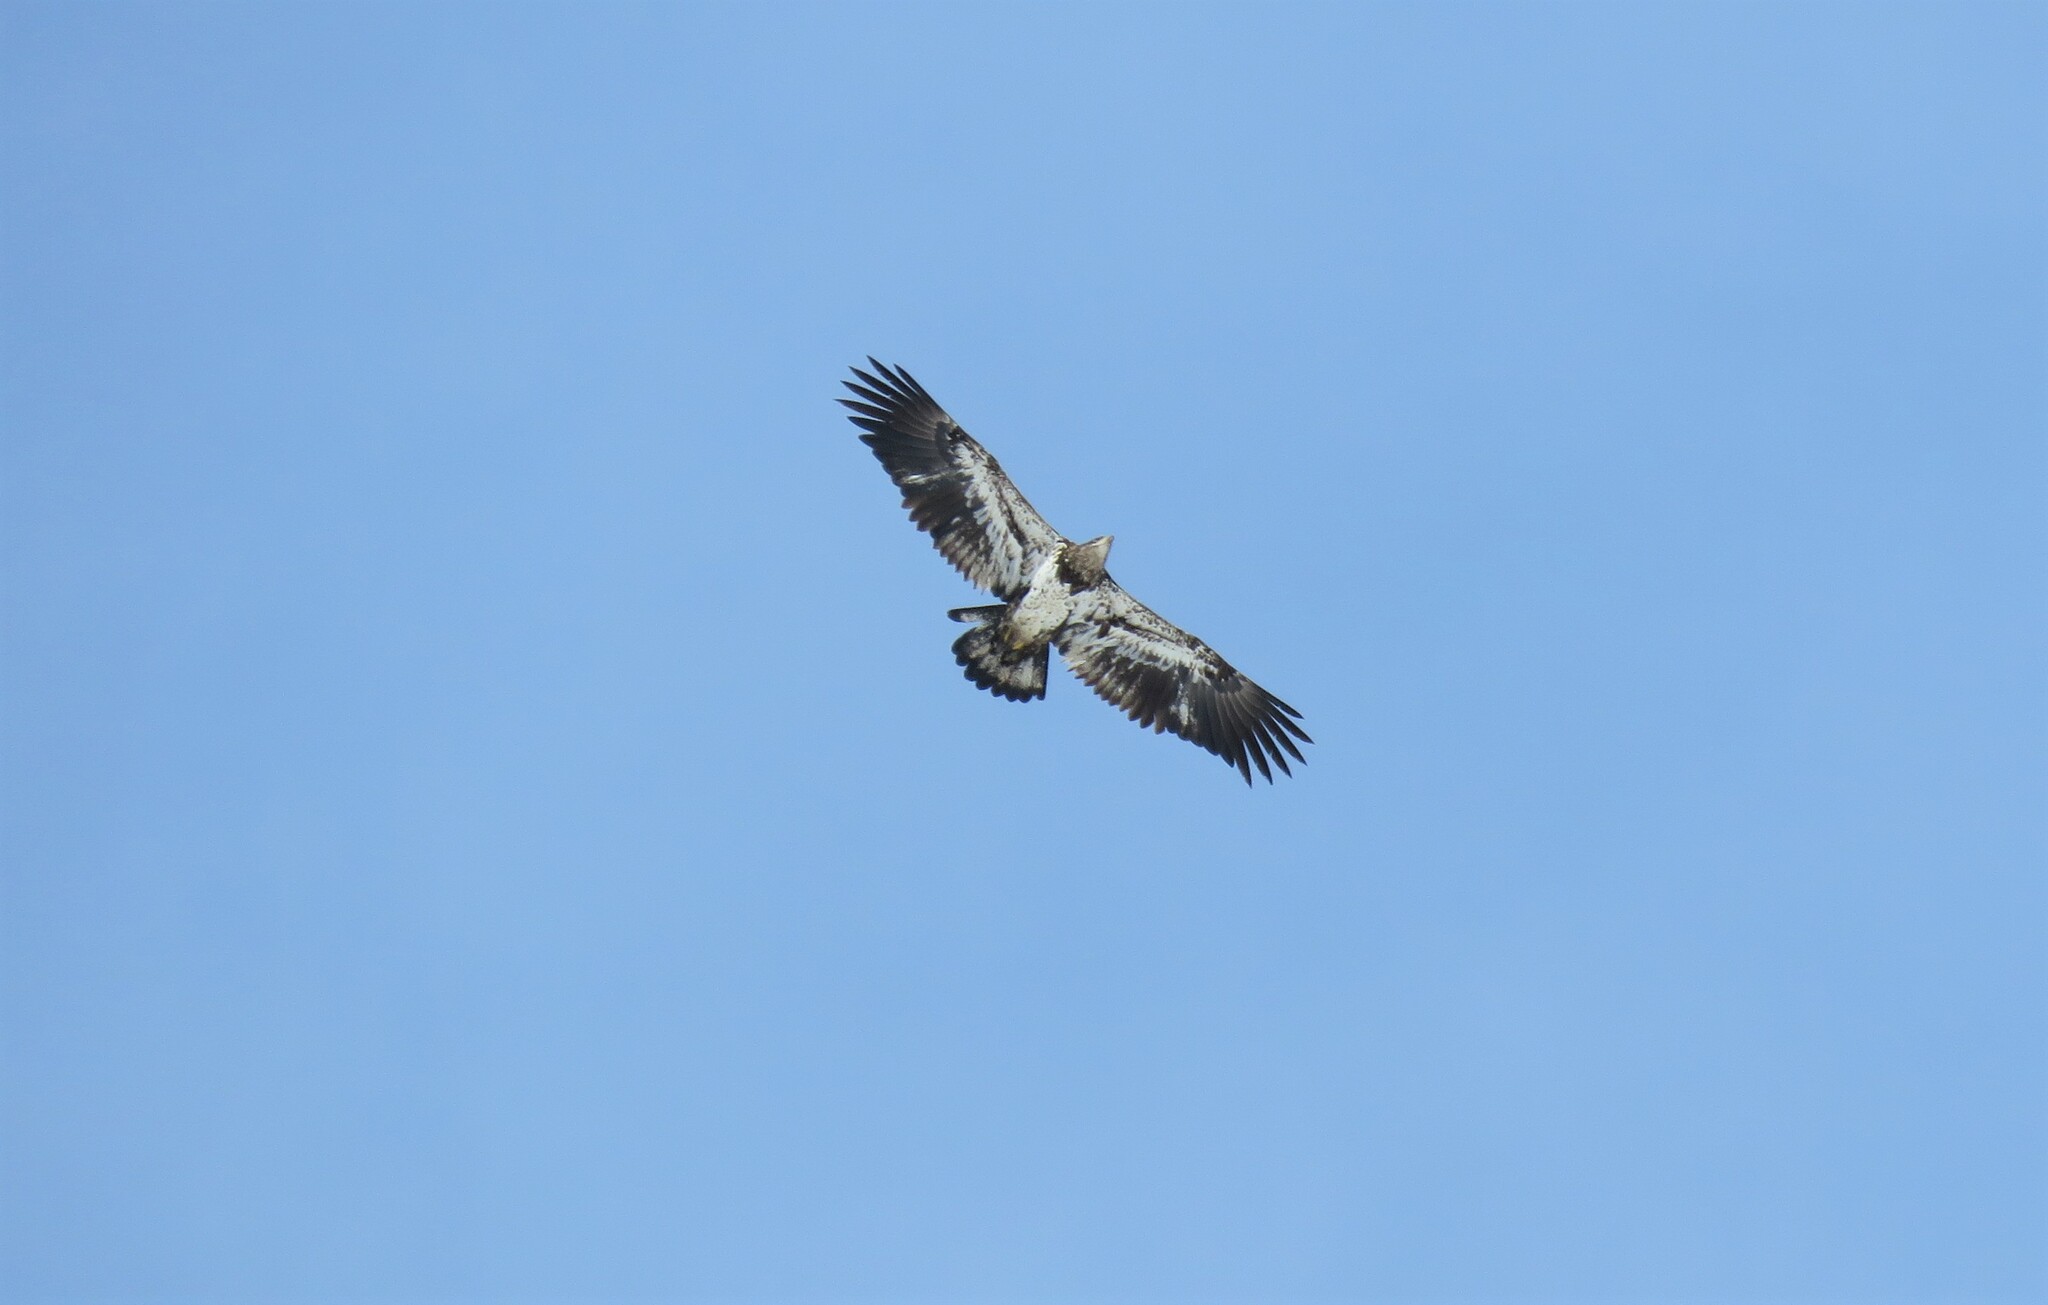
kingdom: Animalia
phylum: Chordata
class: Aves
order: Accipitriformes
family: Accipitridae
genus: Haliaeetus
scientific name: Haliaeetus leucocephalus
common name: Bald eagle
